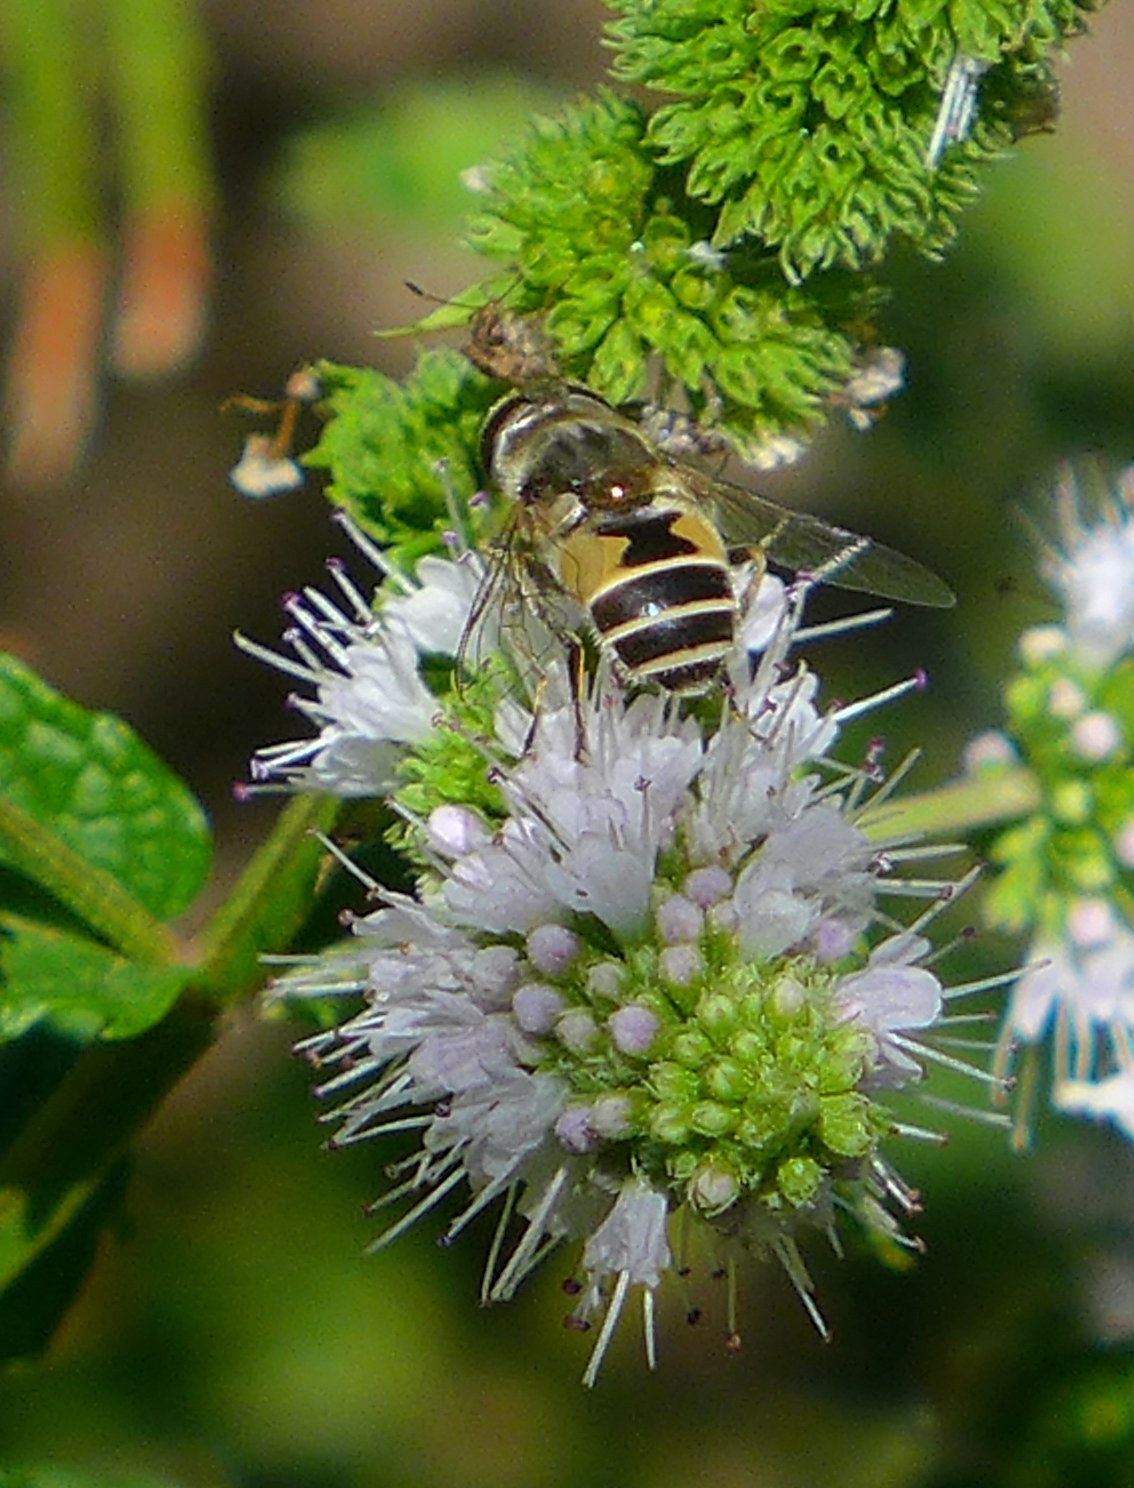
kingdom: Animalia
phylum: Arthropoda
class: Insecta
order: Diptera
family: Syrphidae
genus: Eristalis
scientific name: Eristalis arbustorum
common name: Hover fly
